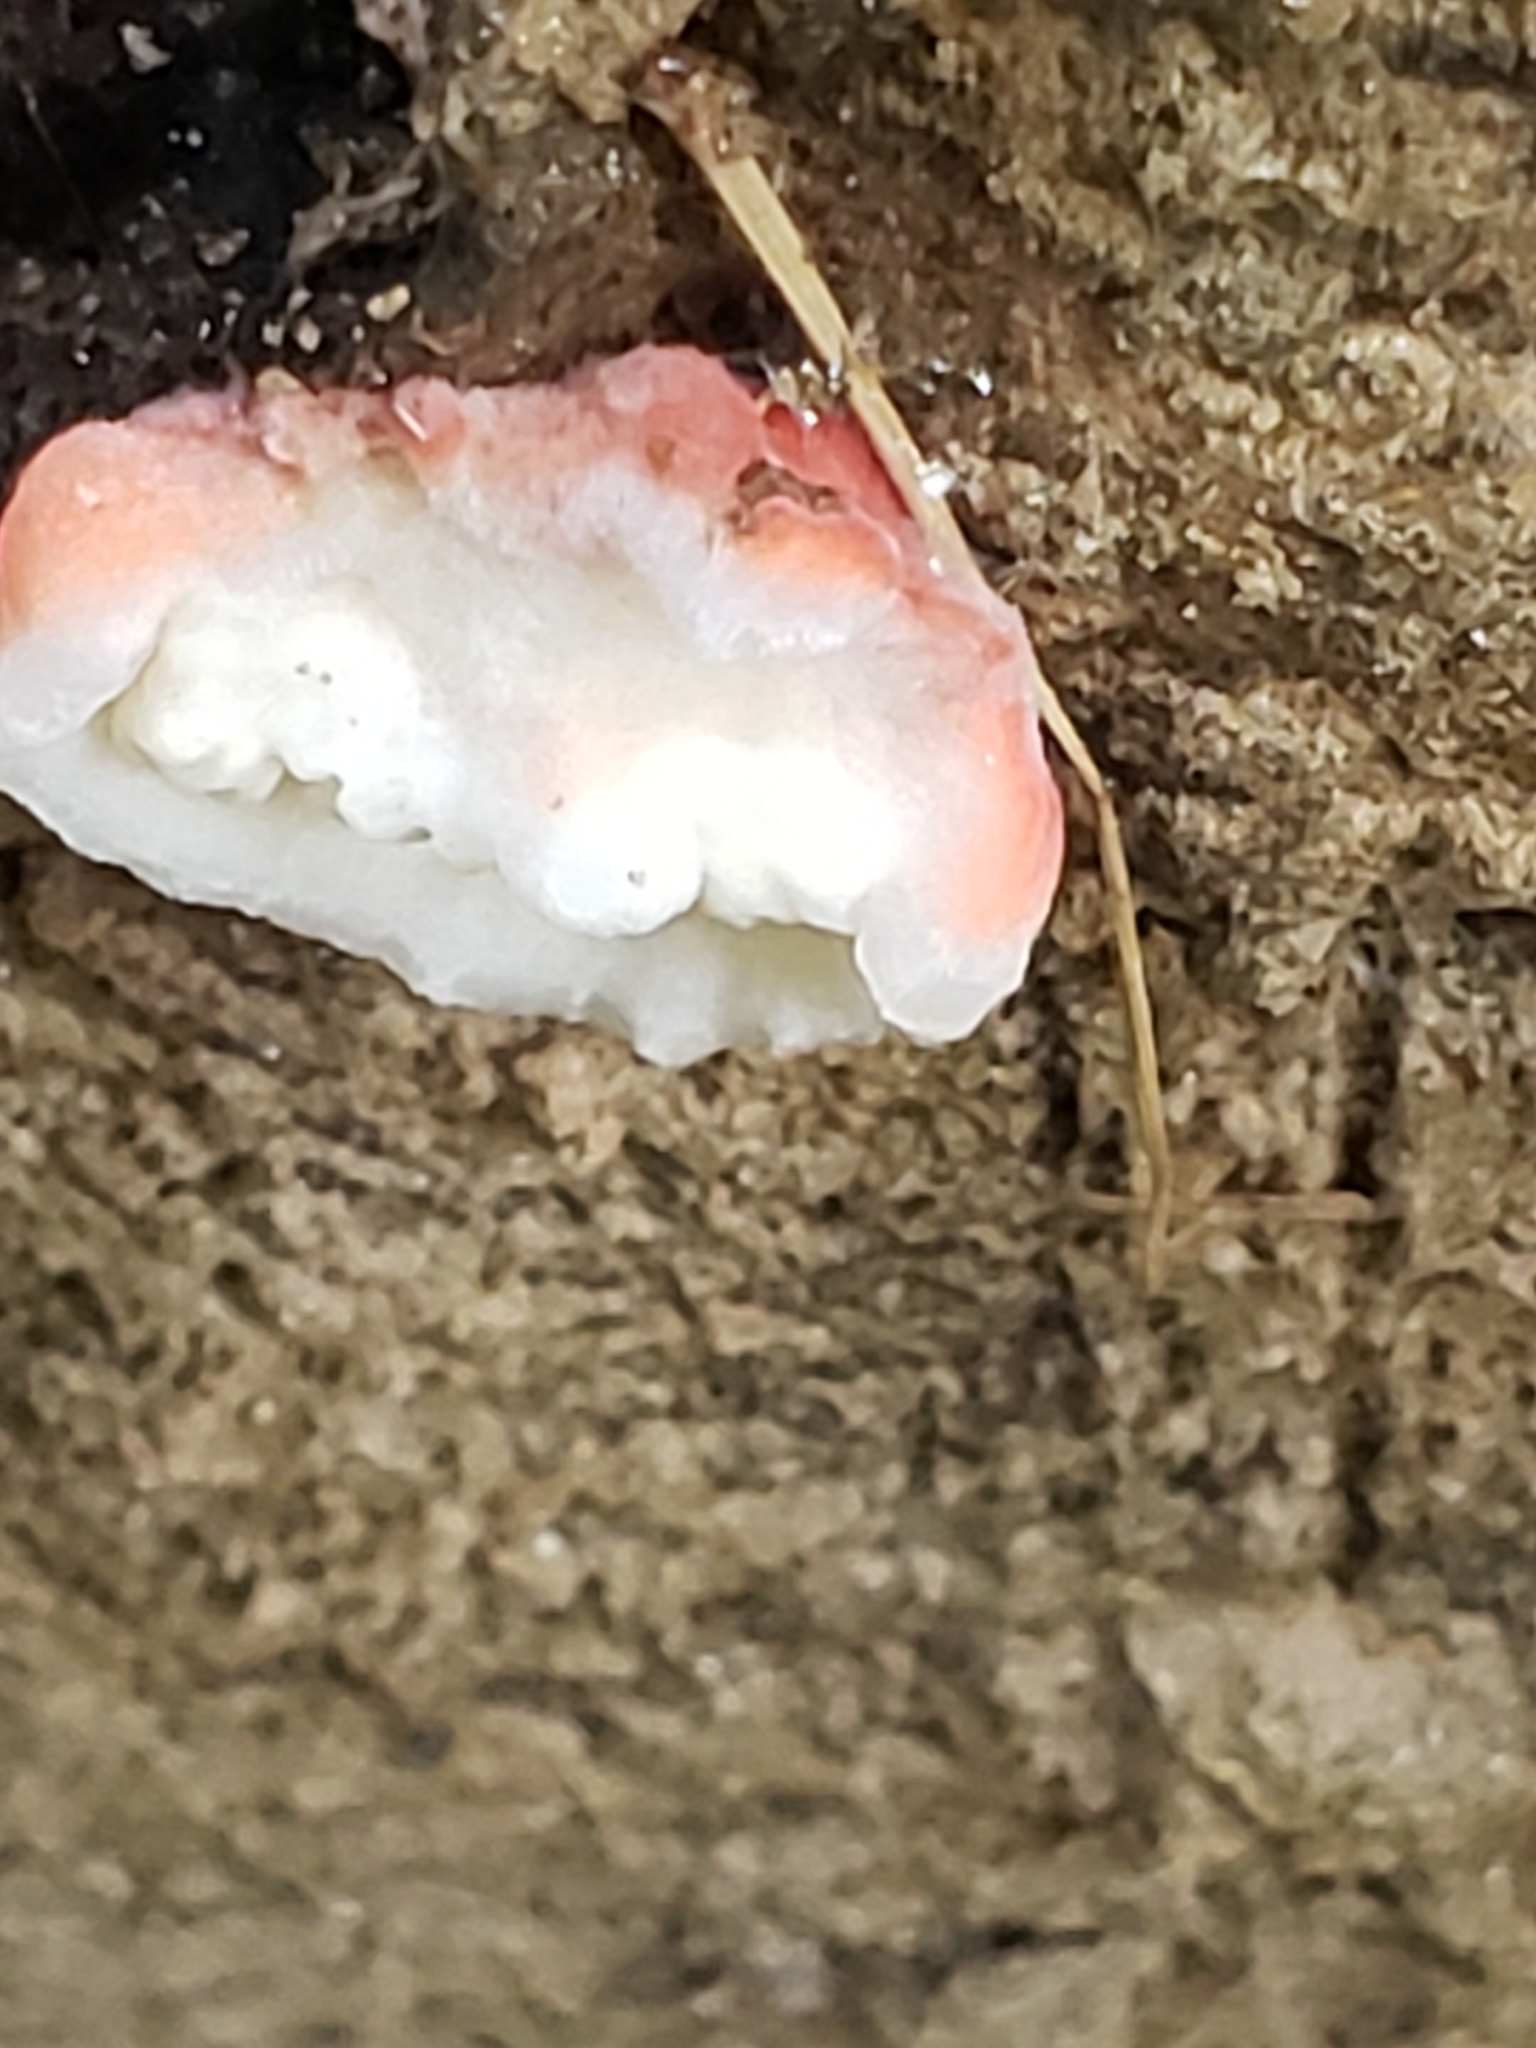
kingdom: Fungi
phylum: Basidiomycota
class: Agaricomycetes
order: Polyporales
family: Irpicaceae
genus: Byssomerulius
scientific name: Byssomerulius incarnatus
